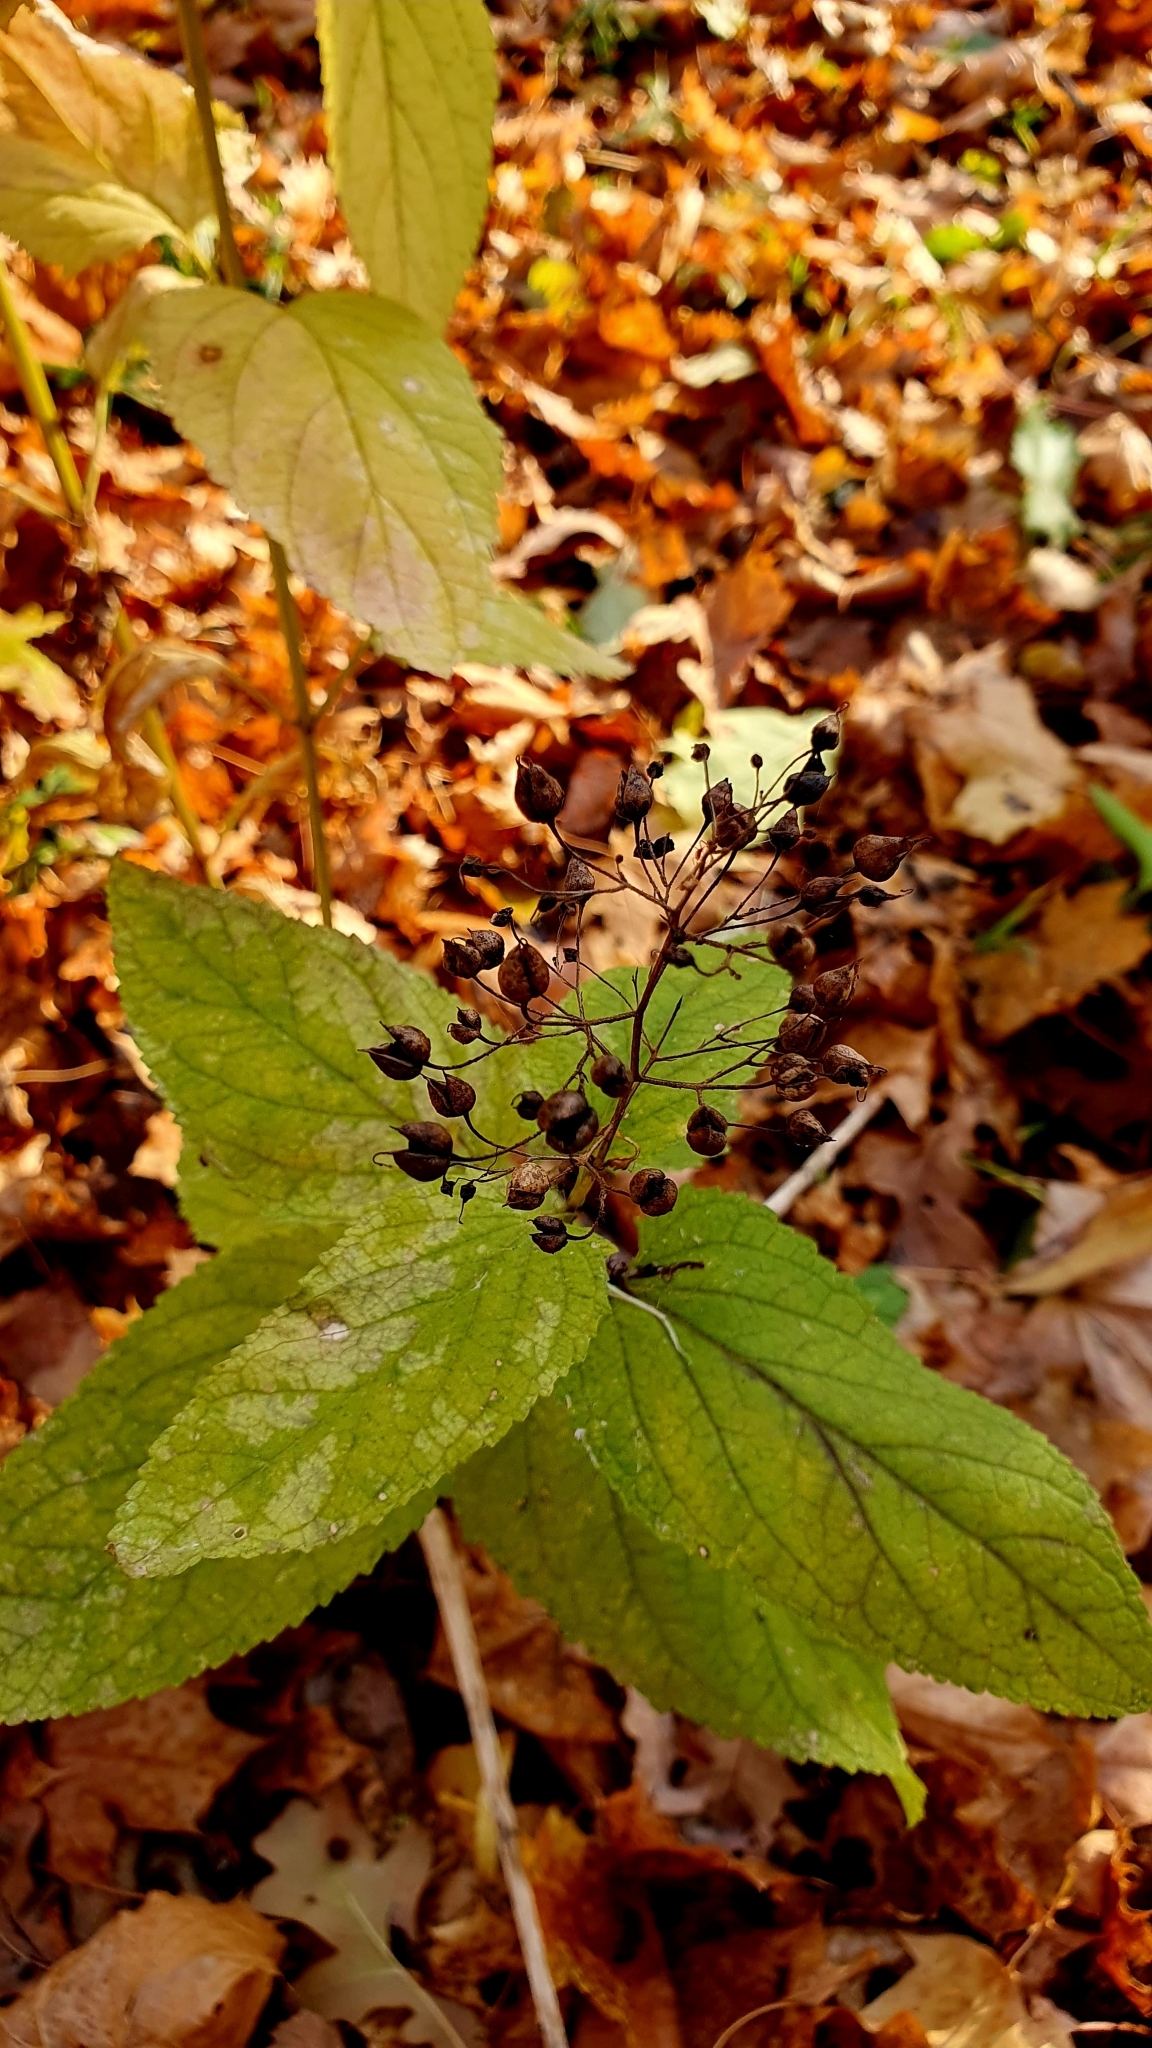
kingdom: Plantae
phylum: Tracheophyta
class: Magnoliopsida
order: Lamiales
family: Scrophulariaceae
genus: Scrophularia
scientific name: Scrophularia nodosa
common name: Common figwort
